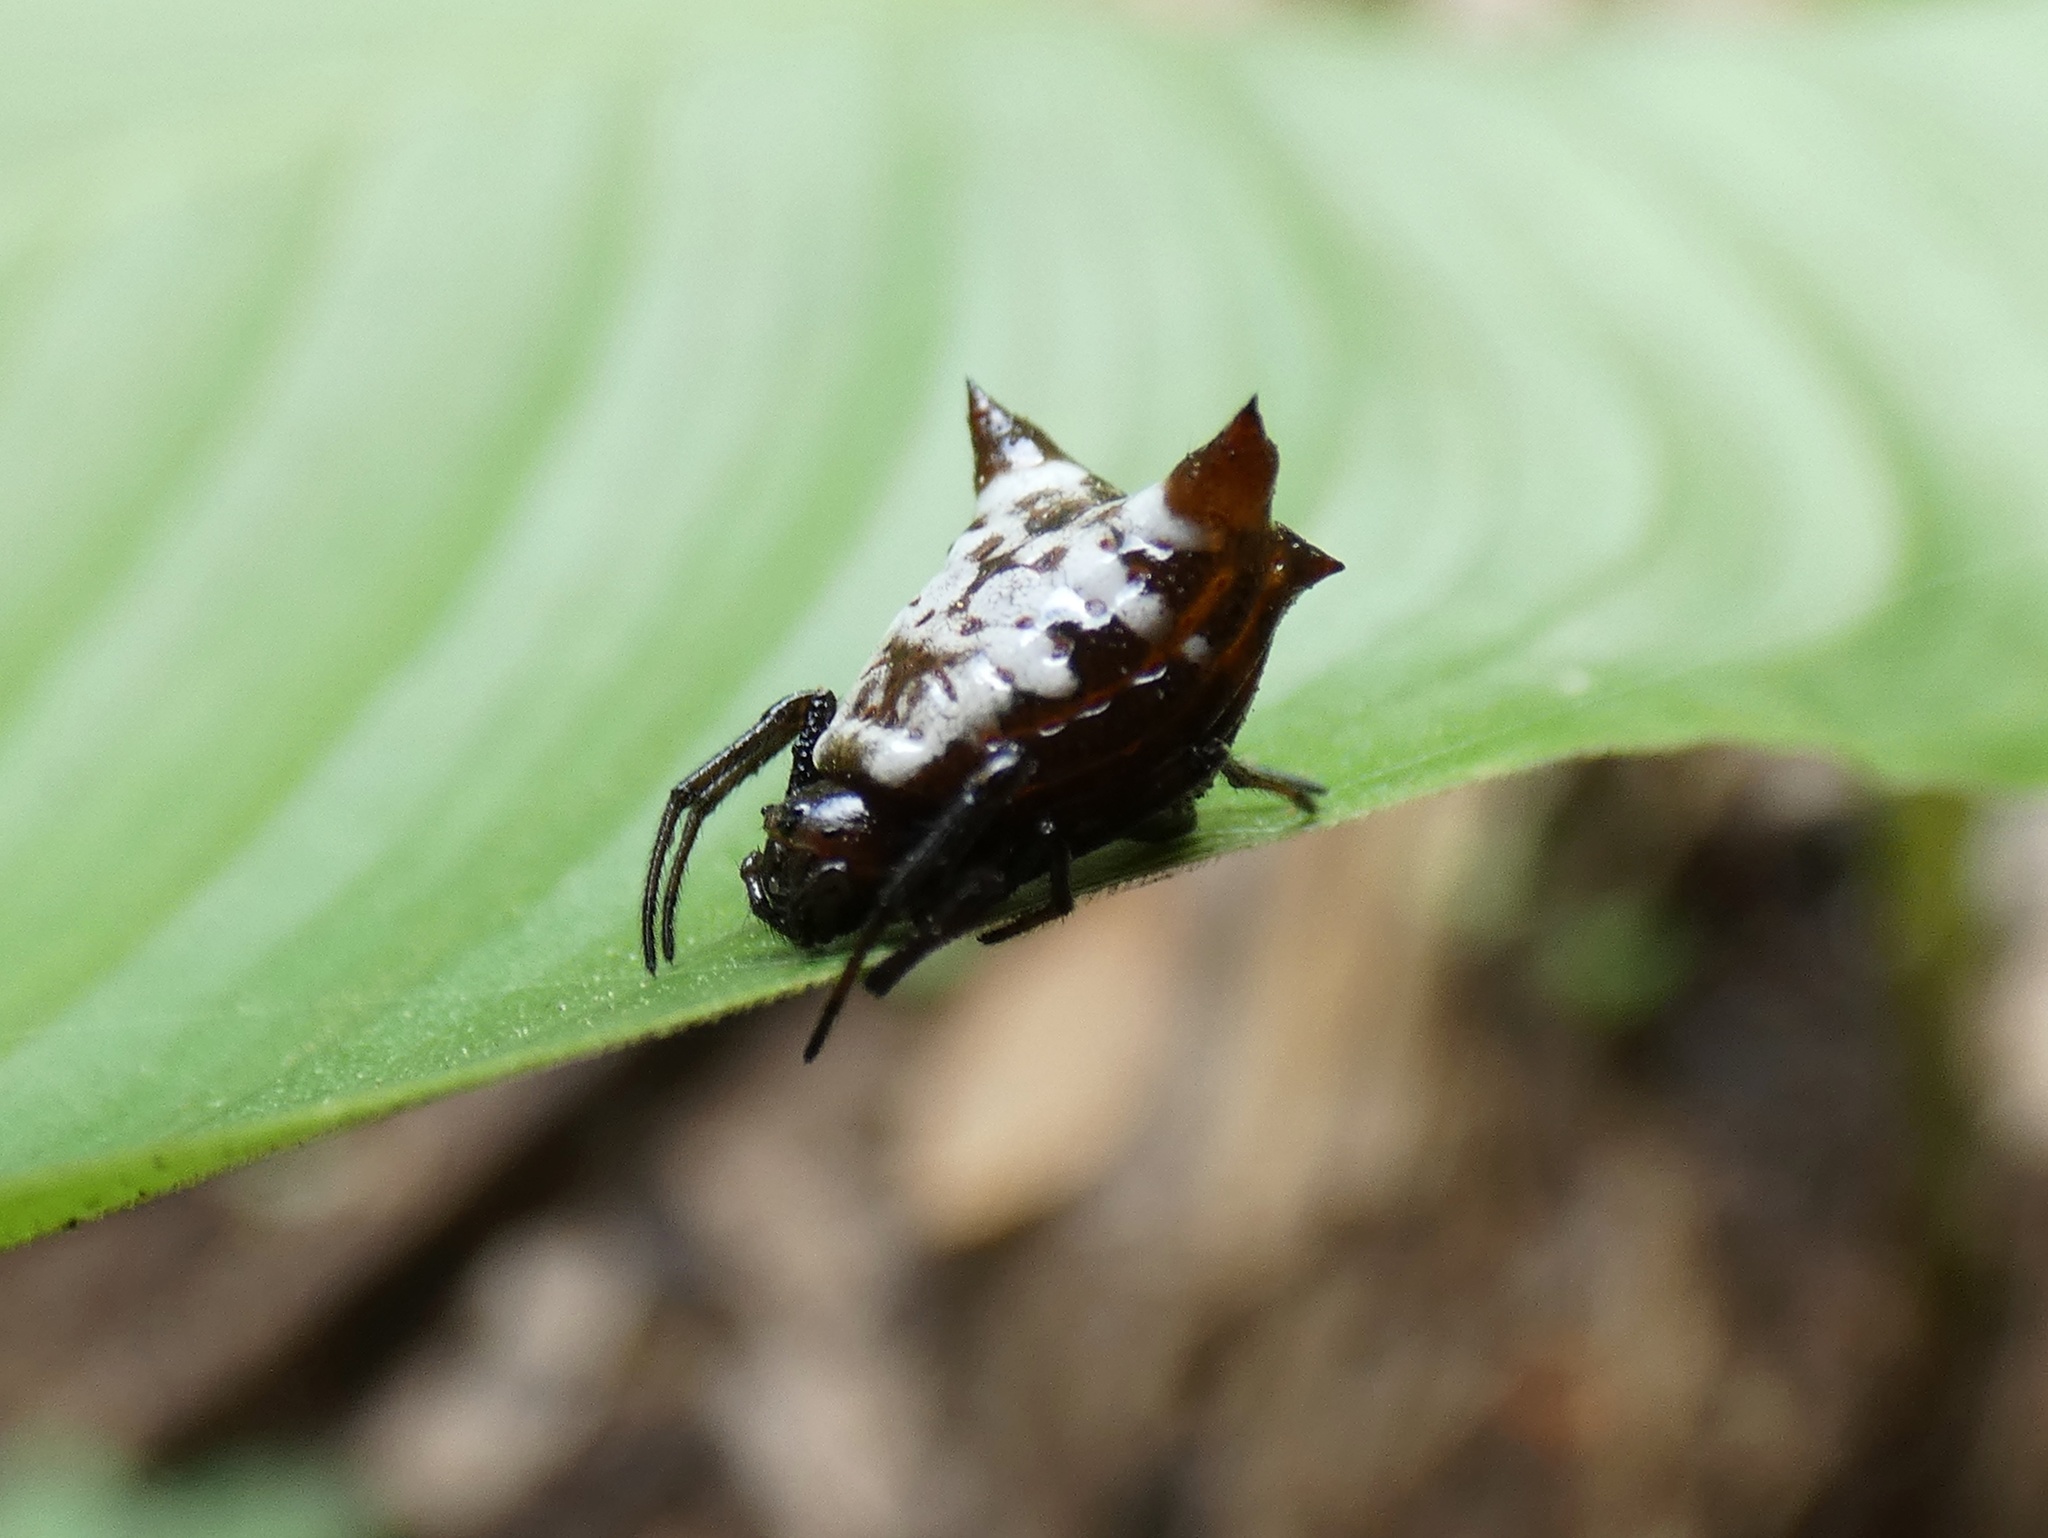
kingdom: Animalia
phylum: Arthropoda
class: Arachnida
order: Araneae
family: Araneidae
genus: Micrathena
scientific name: Micrathena saccata
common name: Orb weavers
